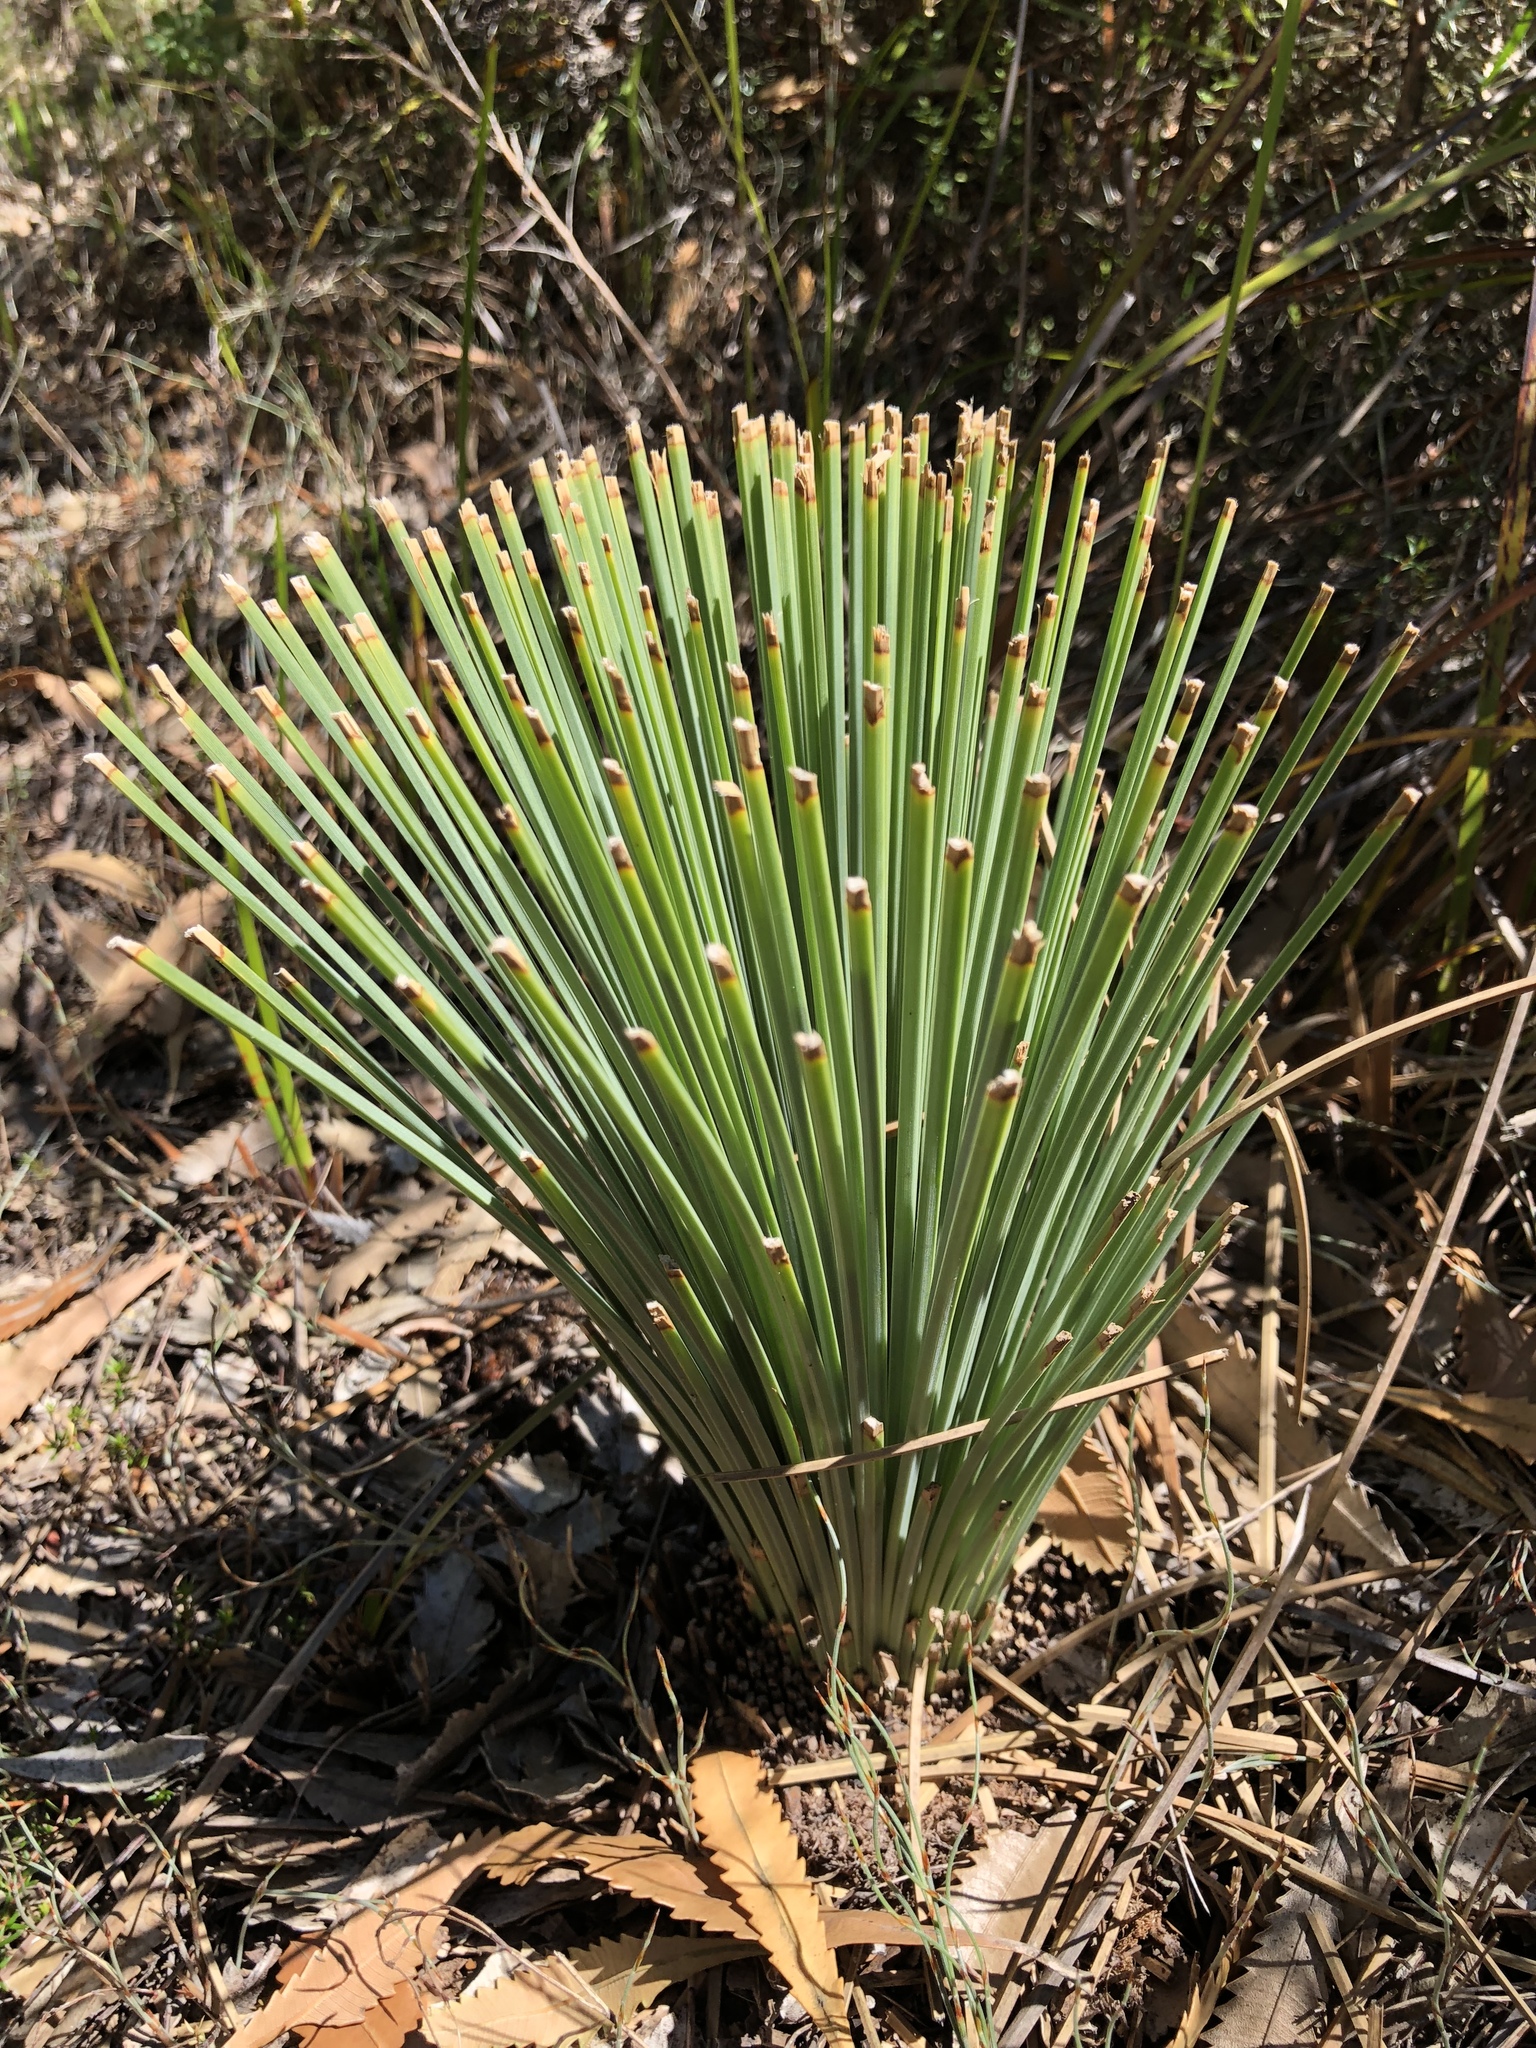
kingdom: Plantae
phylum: Tracheophyta
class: Liliopsida
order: Asparagales
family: Asphodelaceae
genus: Xanthorrhoea
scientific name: Xanthorrhoea australis
